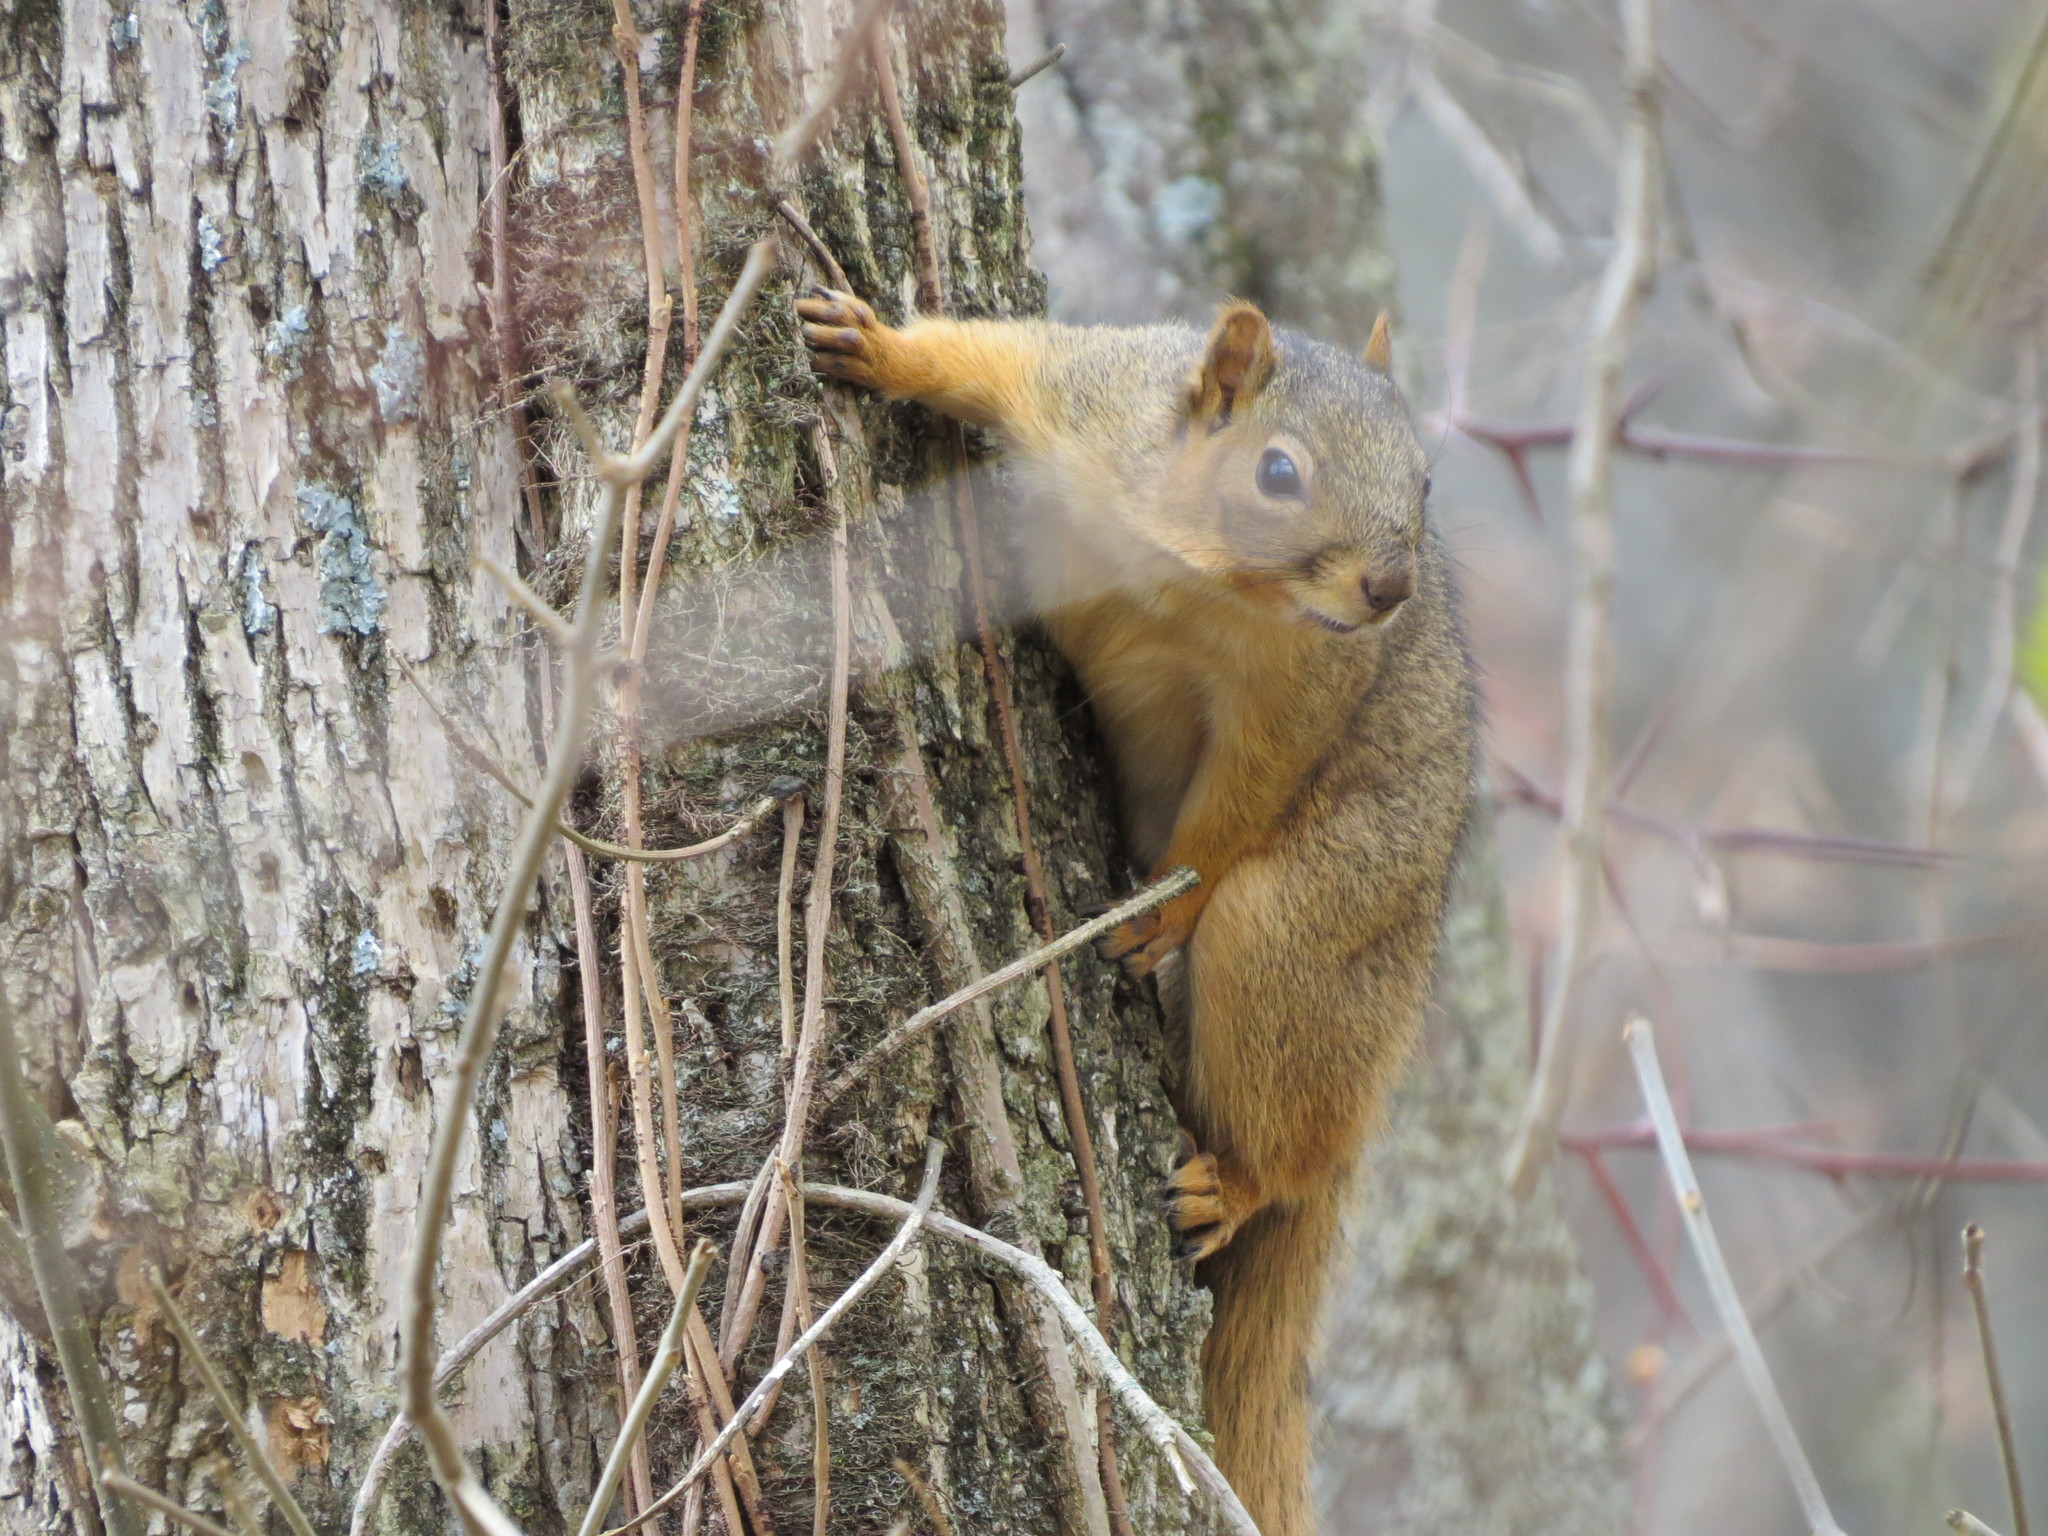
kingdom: Animalia
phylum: Chordata
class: Mammalia
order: Rodentia
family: Sciuridae
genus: Sciurus
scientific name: Sciurus niger
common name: Fox squirrel
